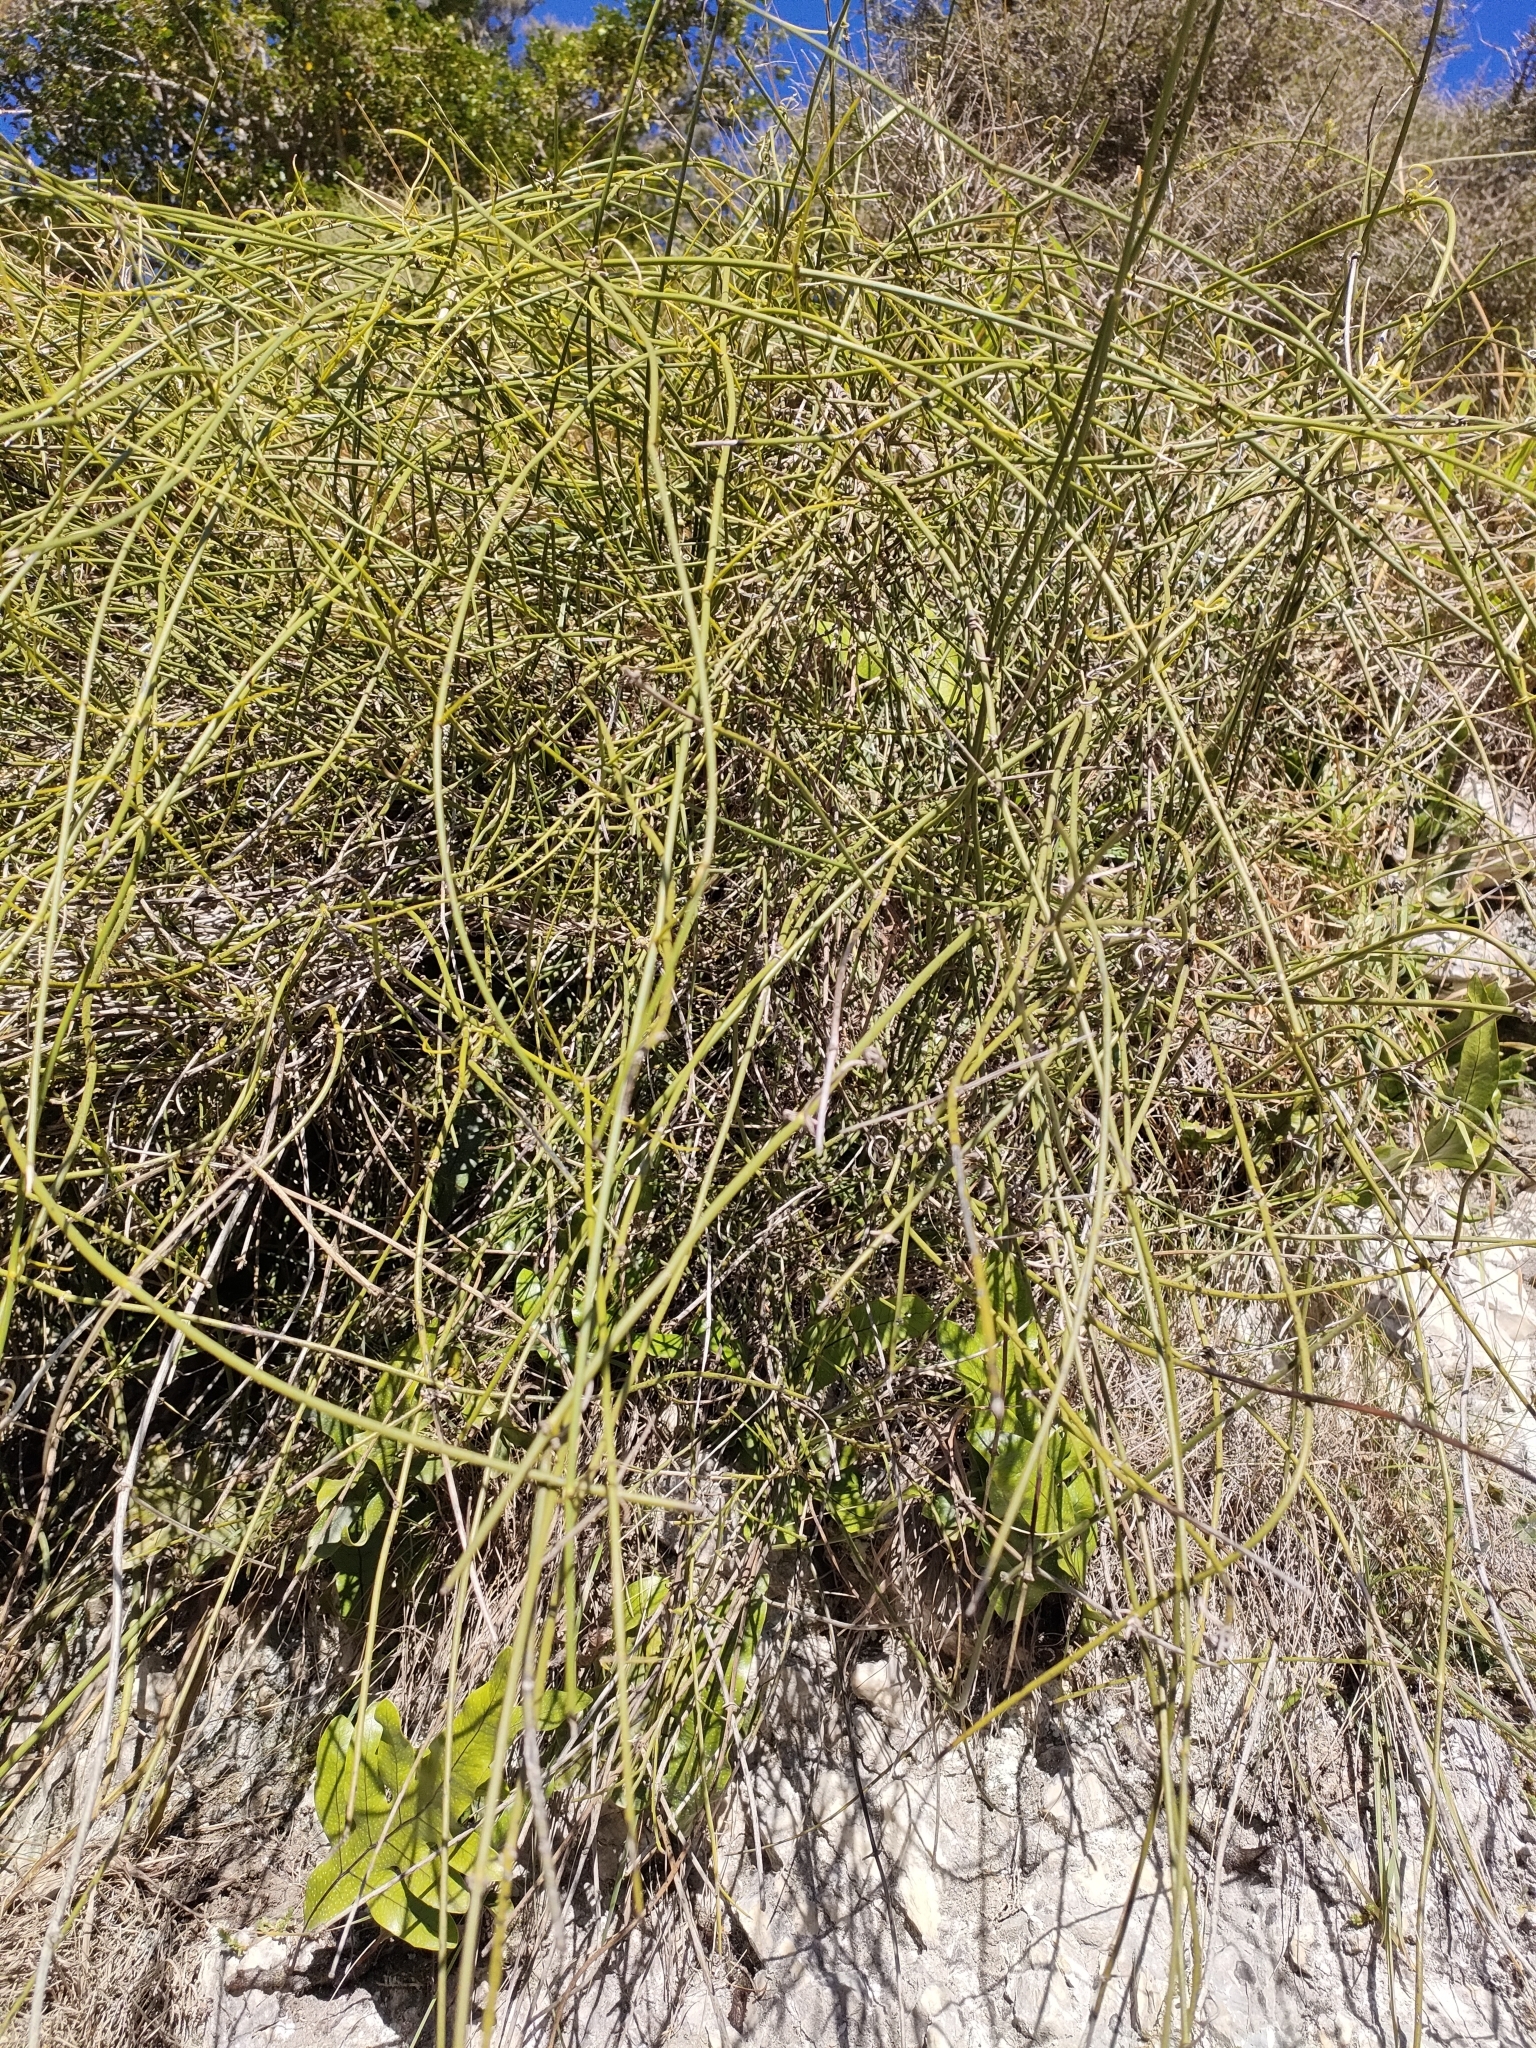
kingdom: Plantae
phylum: Tracheophyta
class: Magnoliopsida
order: Ranunculales
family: Ranunculaceae
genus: Clematis
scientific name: Clematis afoliata
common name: Rush-stem clematis
